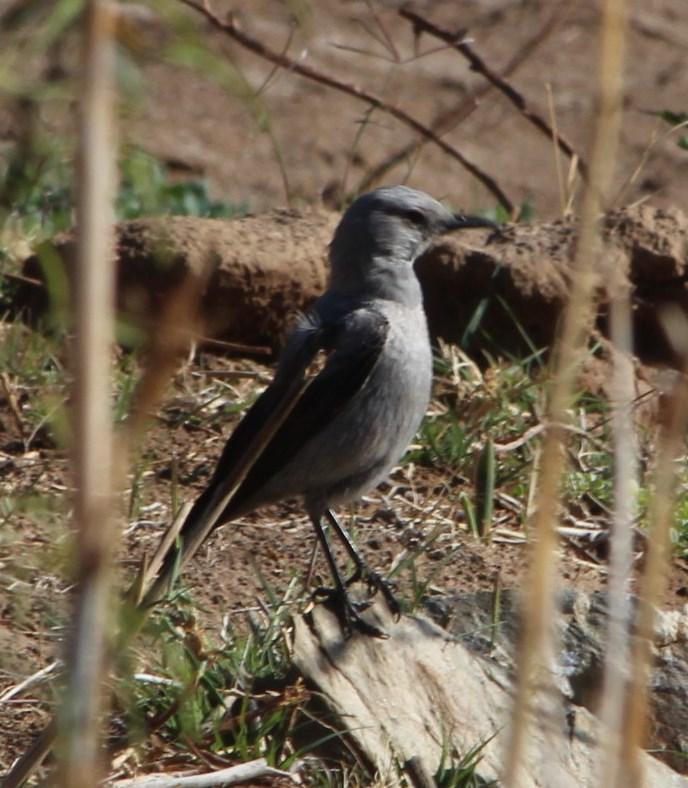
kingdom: Animalia
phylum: Chordata
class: Aves
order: Passeriformes
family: Muscicapidae
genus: Oenanthe
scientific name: Oenanthe monticola
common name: Mountain wheatear
